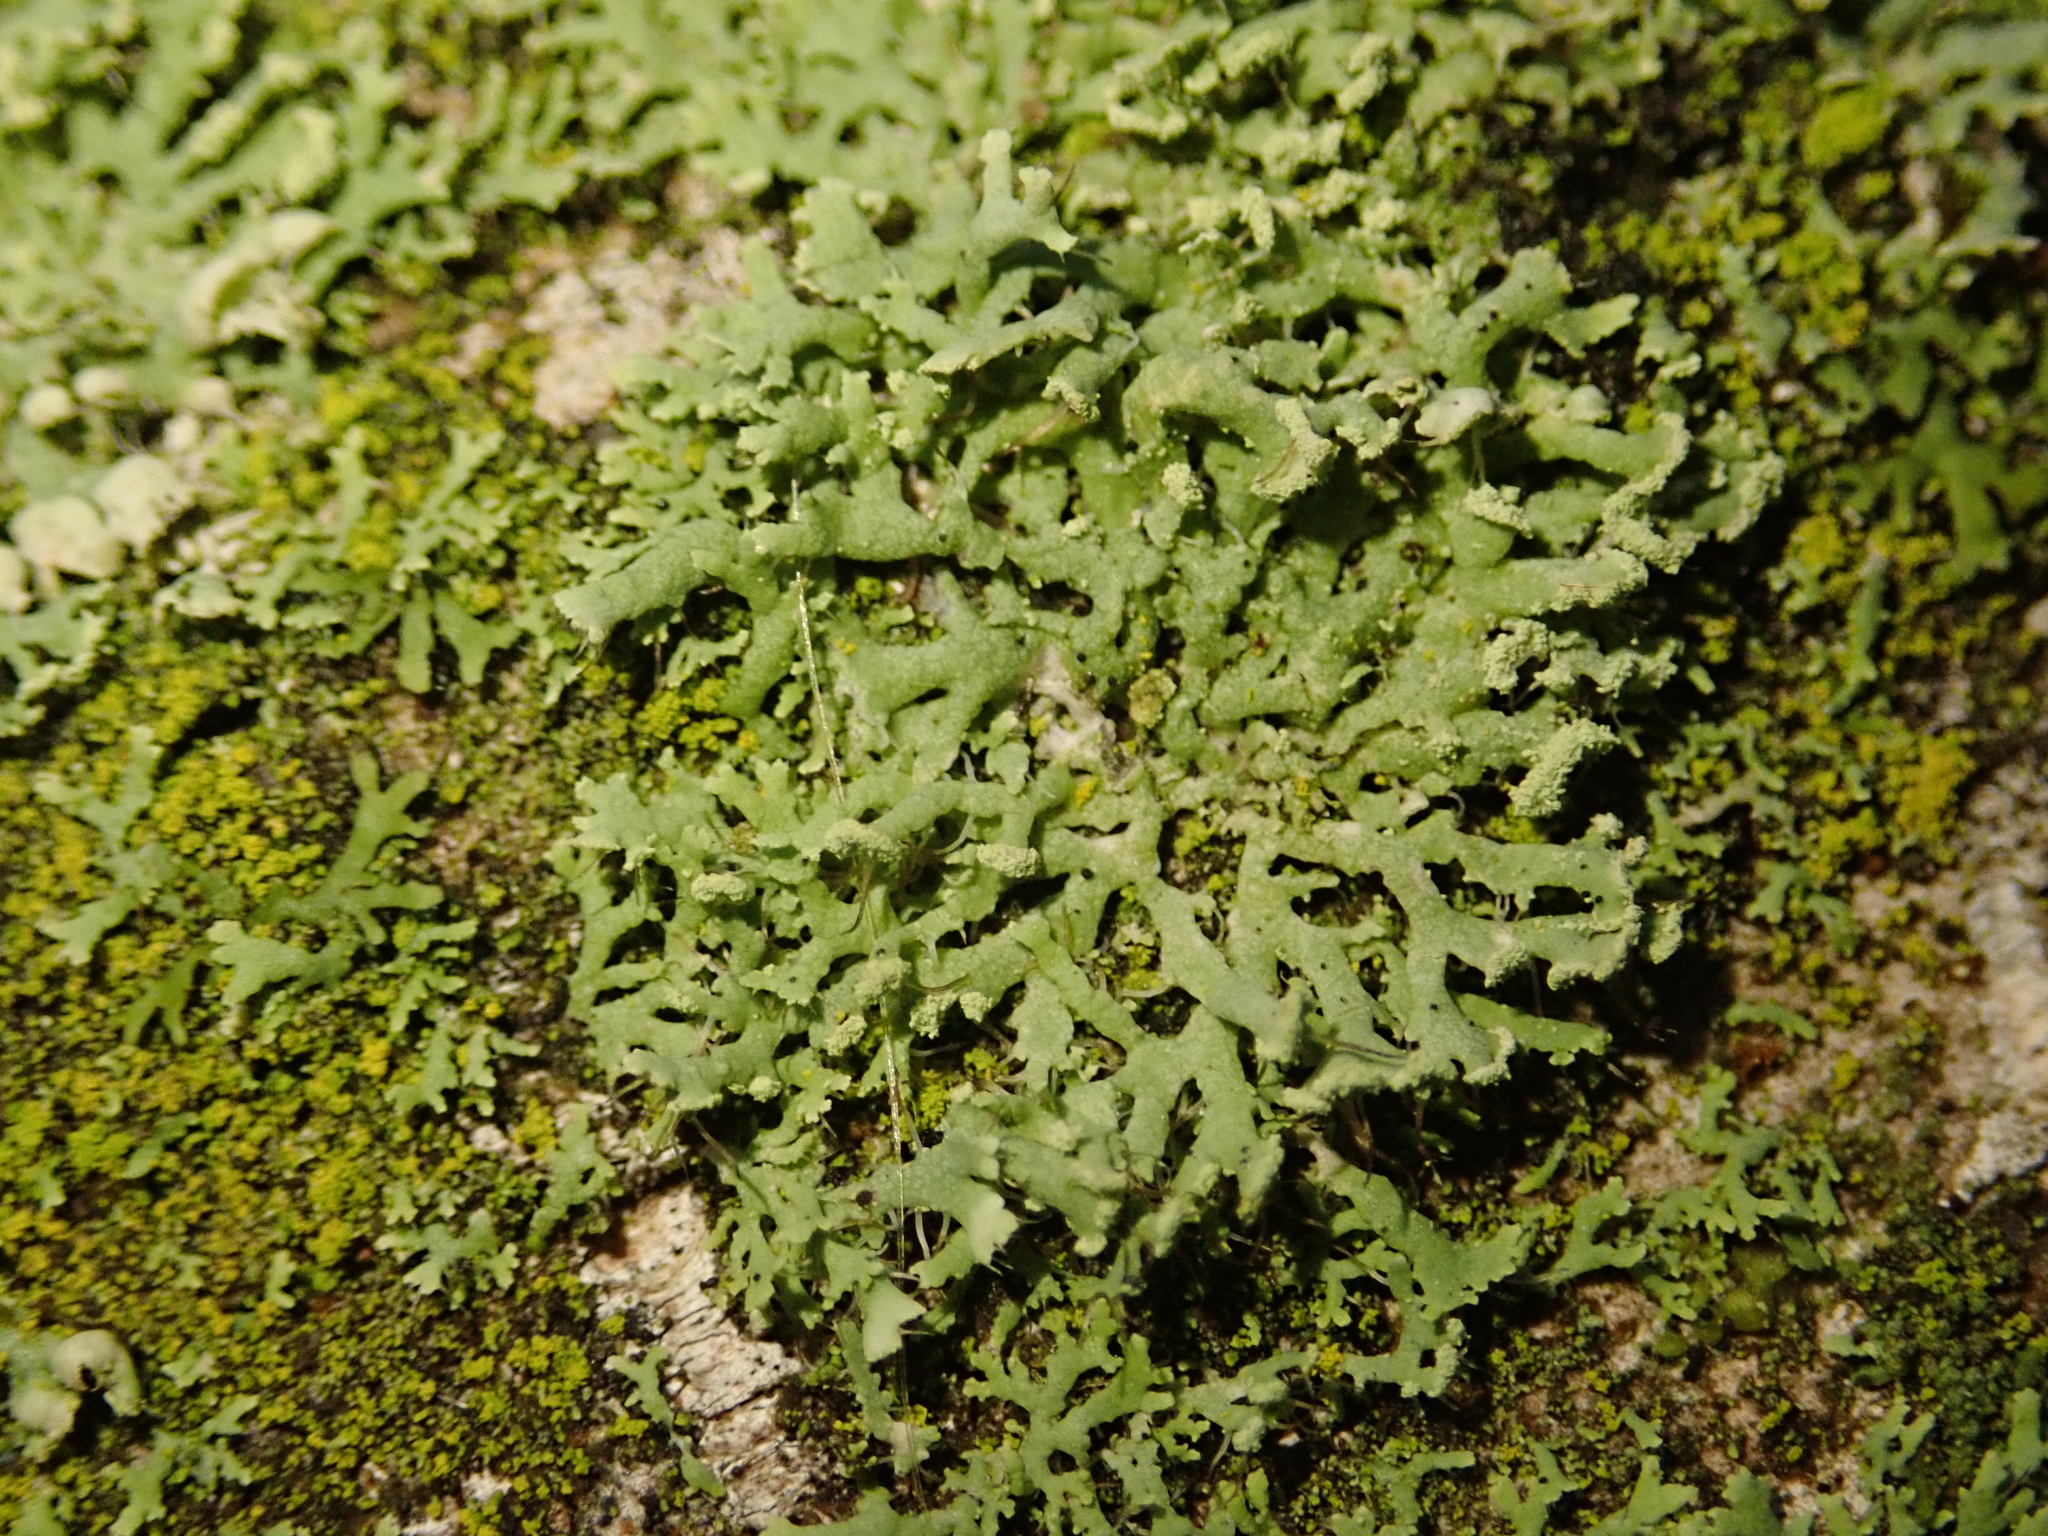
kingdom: Fungi
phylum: Ascomycota
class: Lecanoromycetes
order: Caliciales
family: Physciaceae
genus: Physcia
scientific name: Physcia tenella
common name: Fringed rosette lichen
